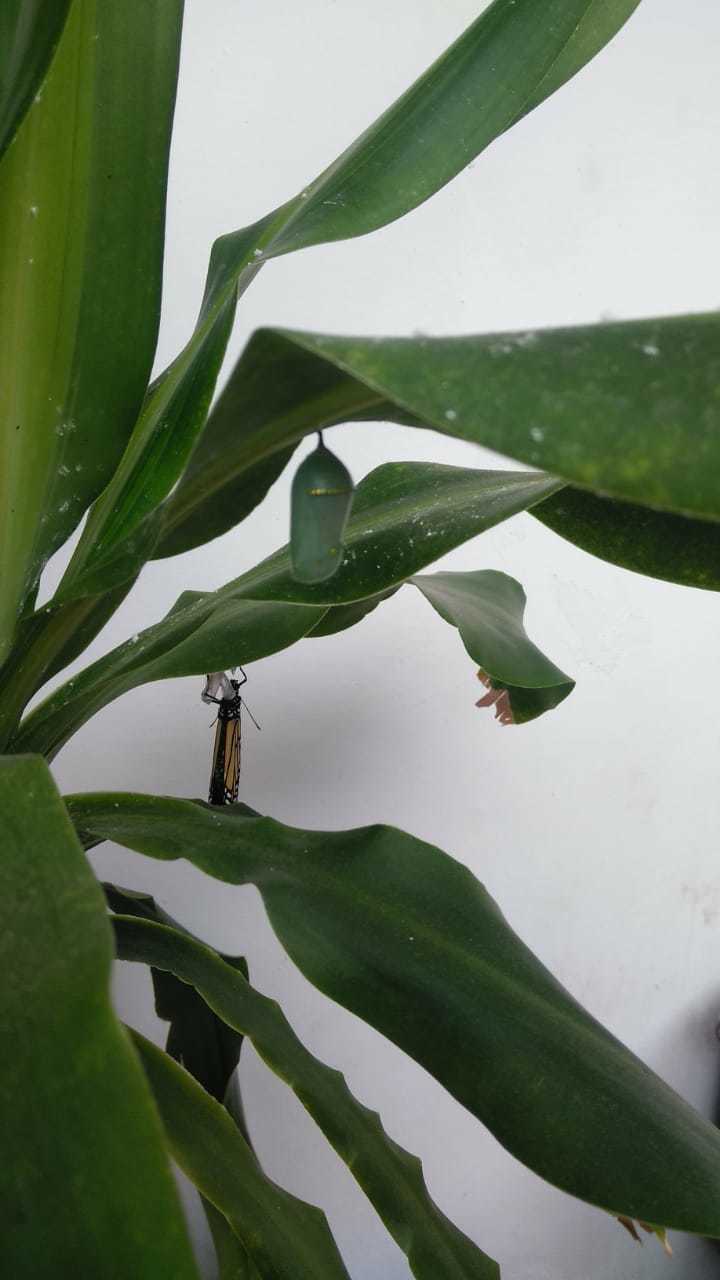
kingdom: Animalia
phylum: Arthropoda
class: Insecta
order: Lepidoptera
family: Nymphalidae
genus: Danaus
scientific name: Danaus plexippus
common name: Monarch
